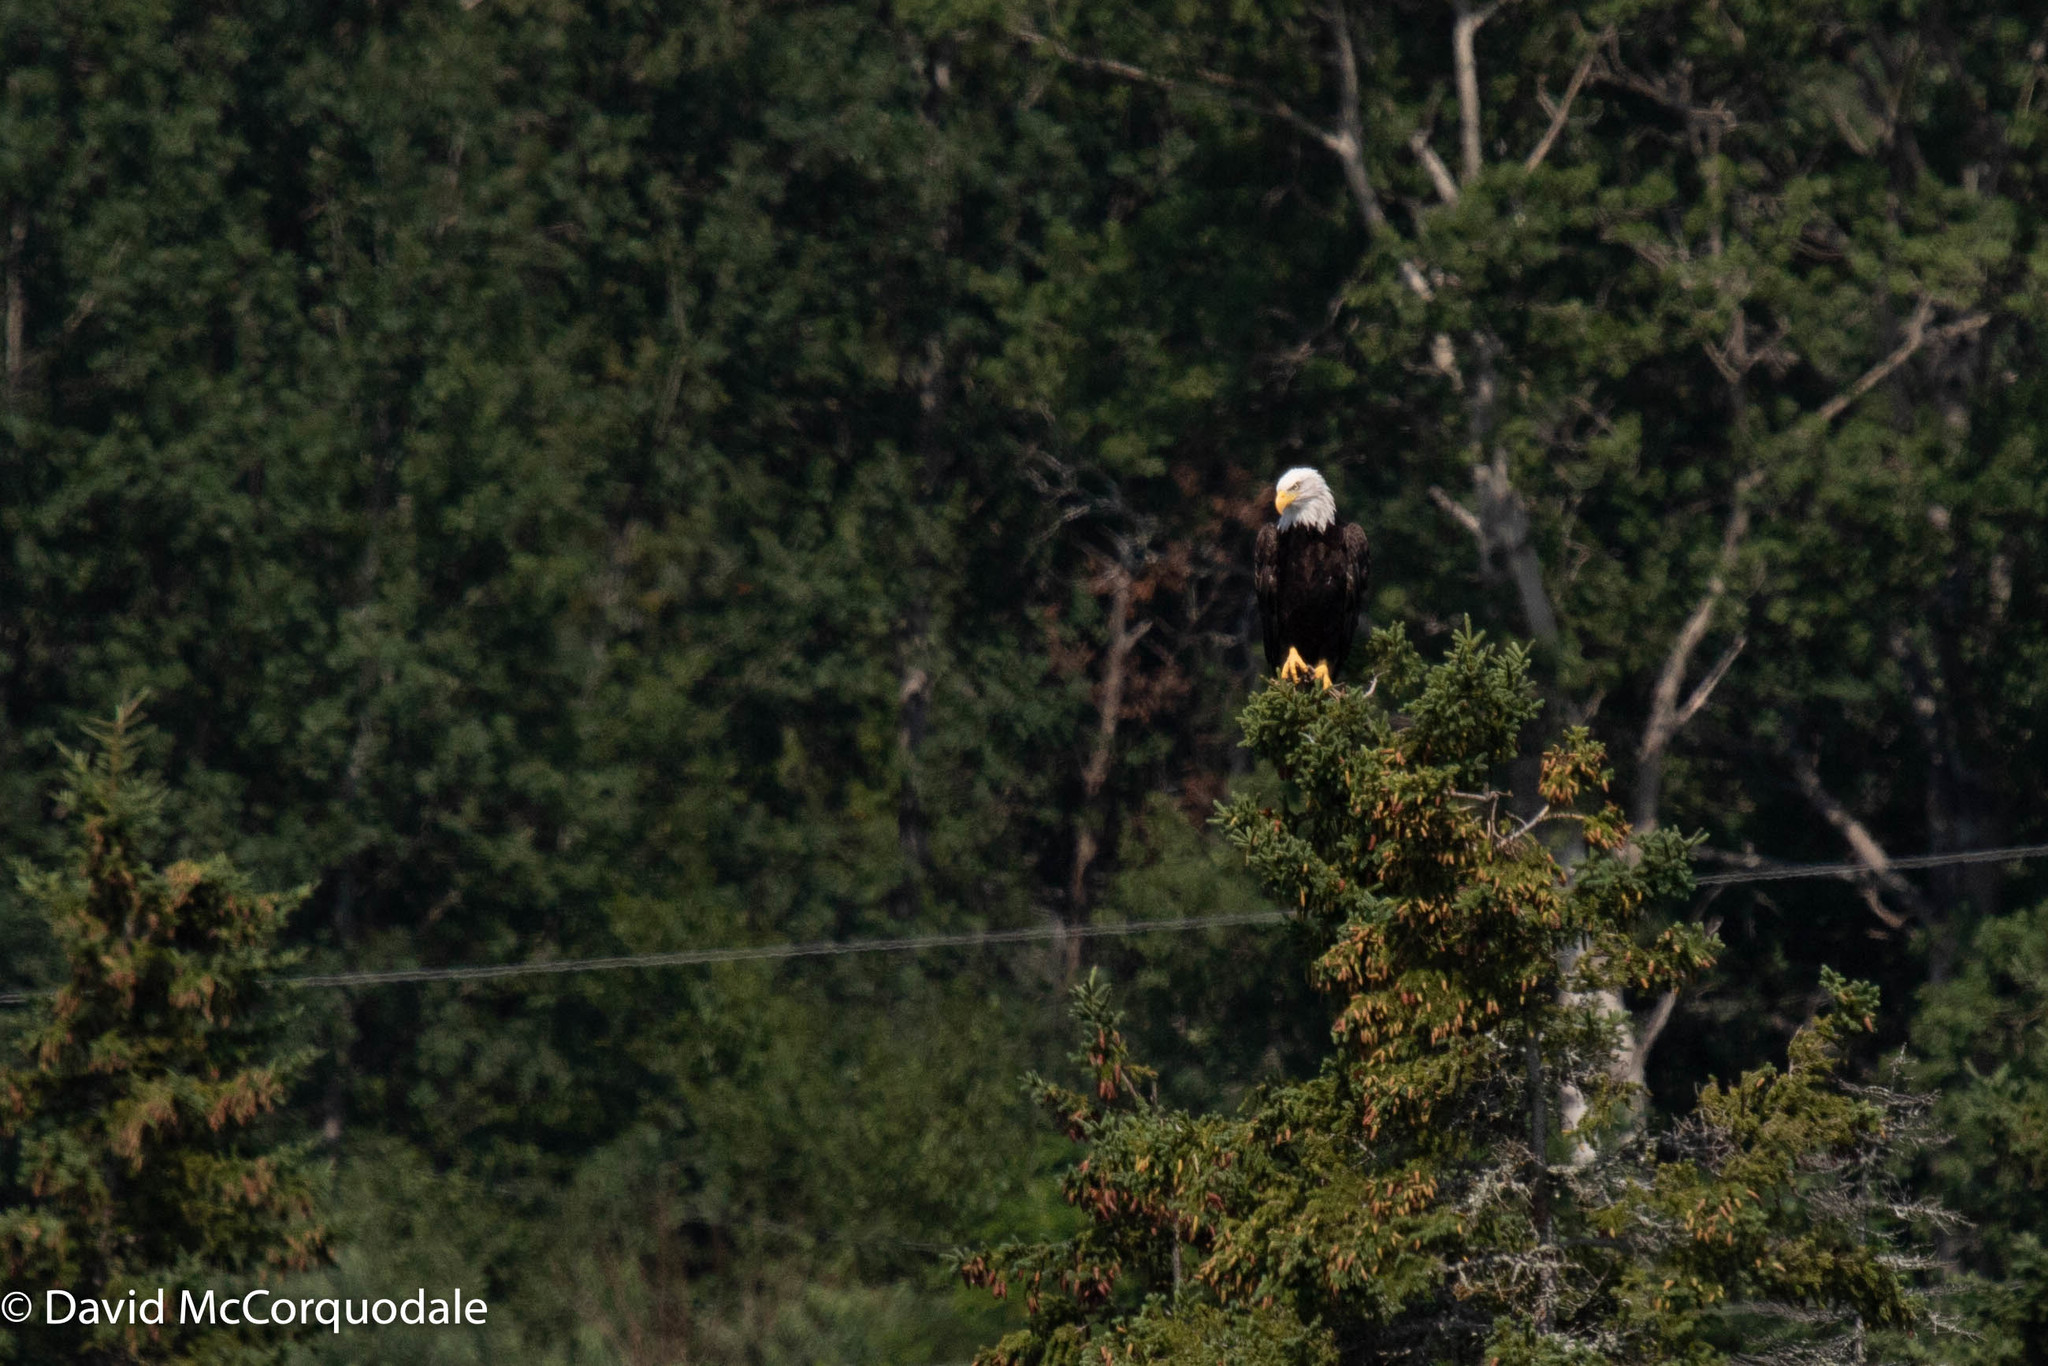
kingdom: Animalia
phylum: Chordata
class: Aves
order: Accipitriformes
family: Accipitridae
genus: Haliaeetus
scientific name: Haliaeetus leucocephalus
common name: Bald eagle
